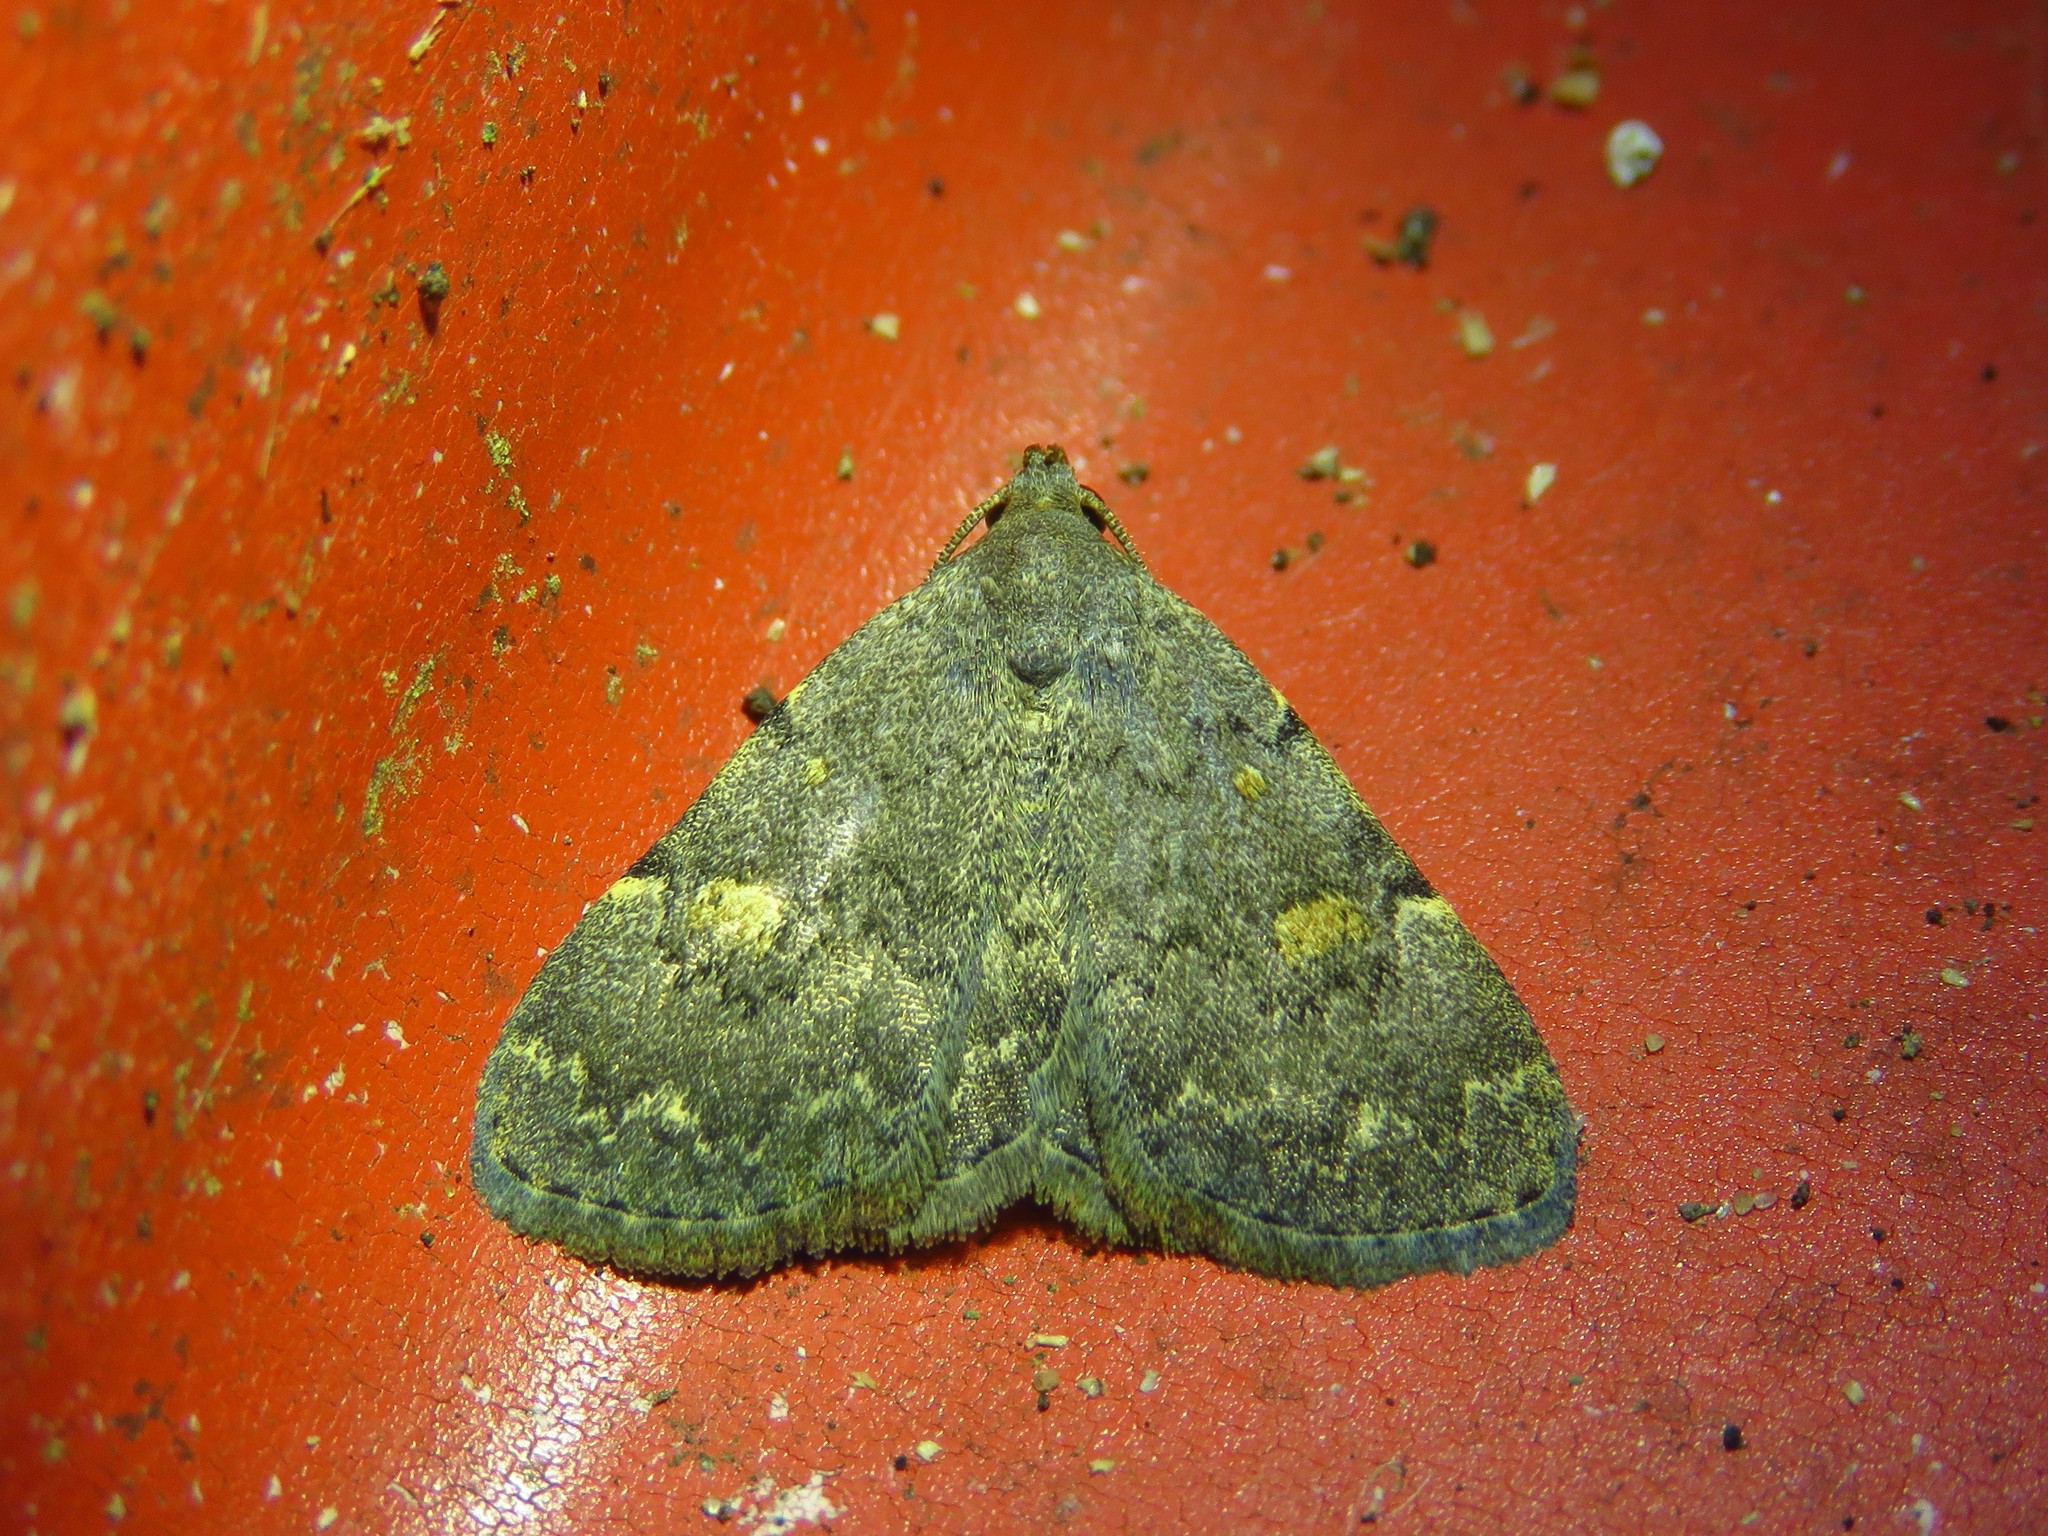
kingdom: Animalia
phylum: Arthropoda
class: Insecta
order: Lepidoptera
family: Erebidae
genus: Idia
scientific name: Idia aemula
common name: Common idia moth
